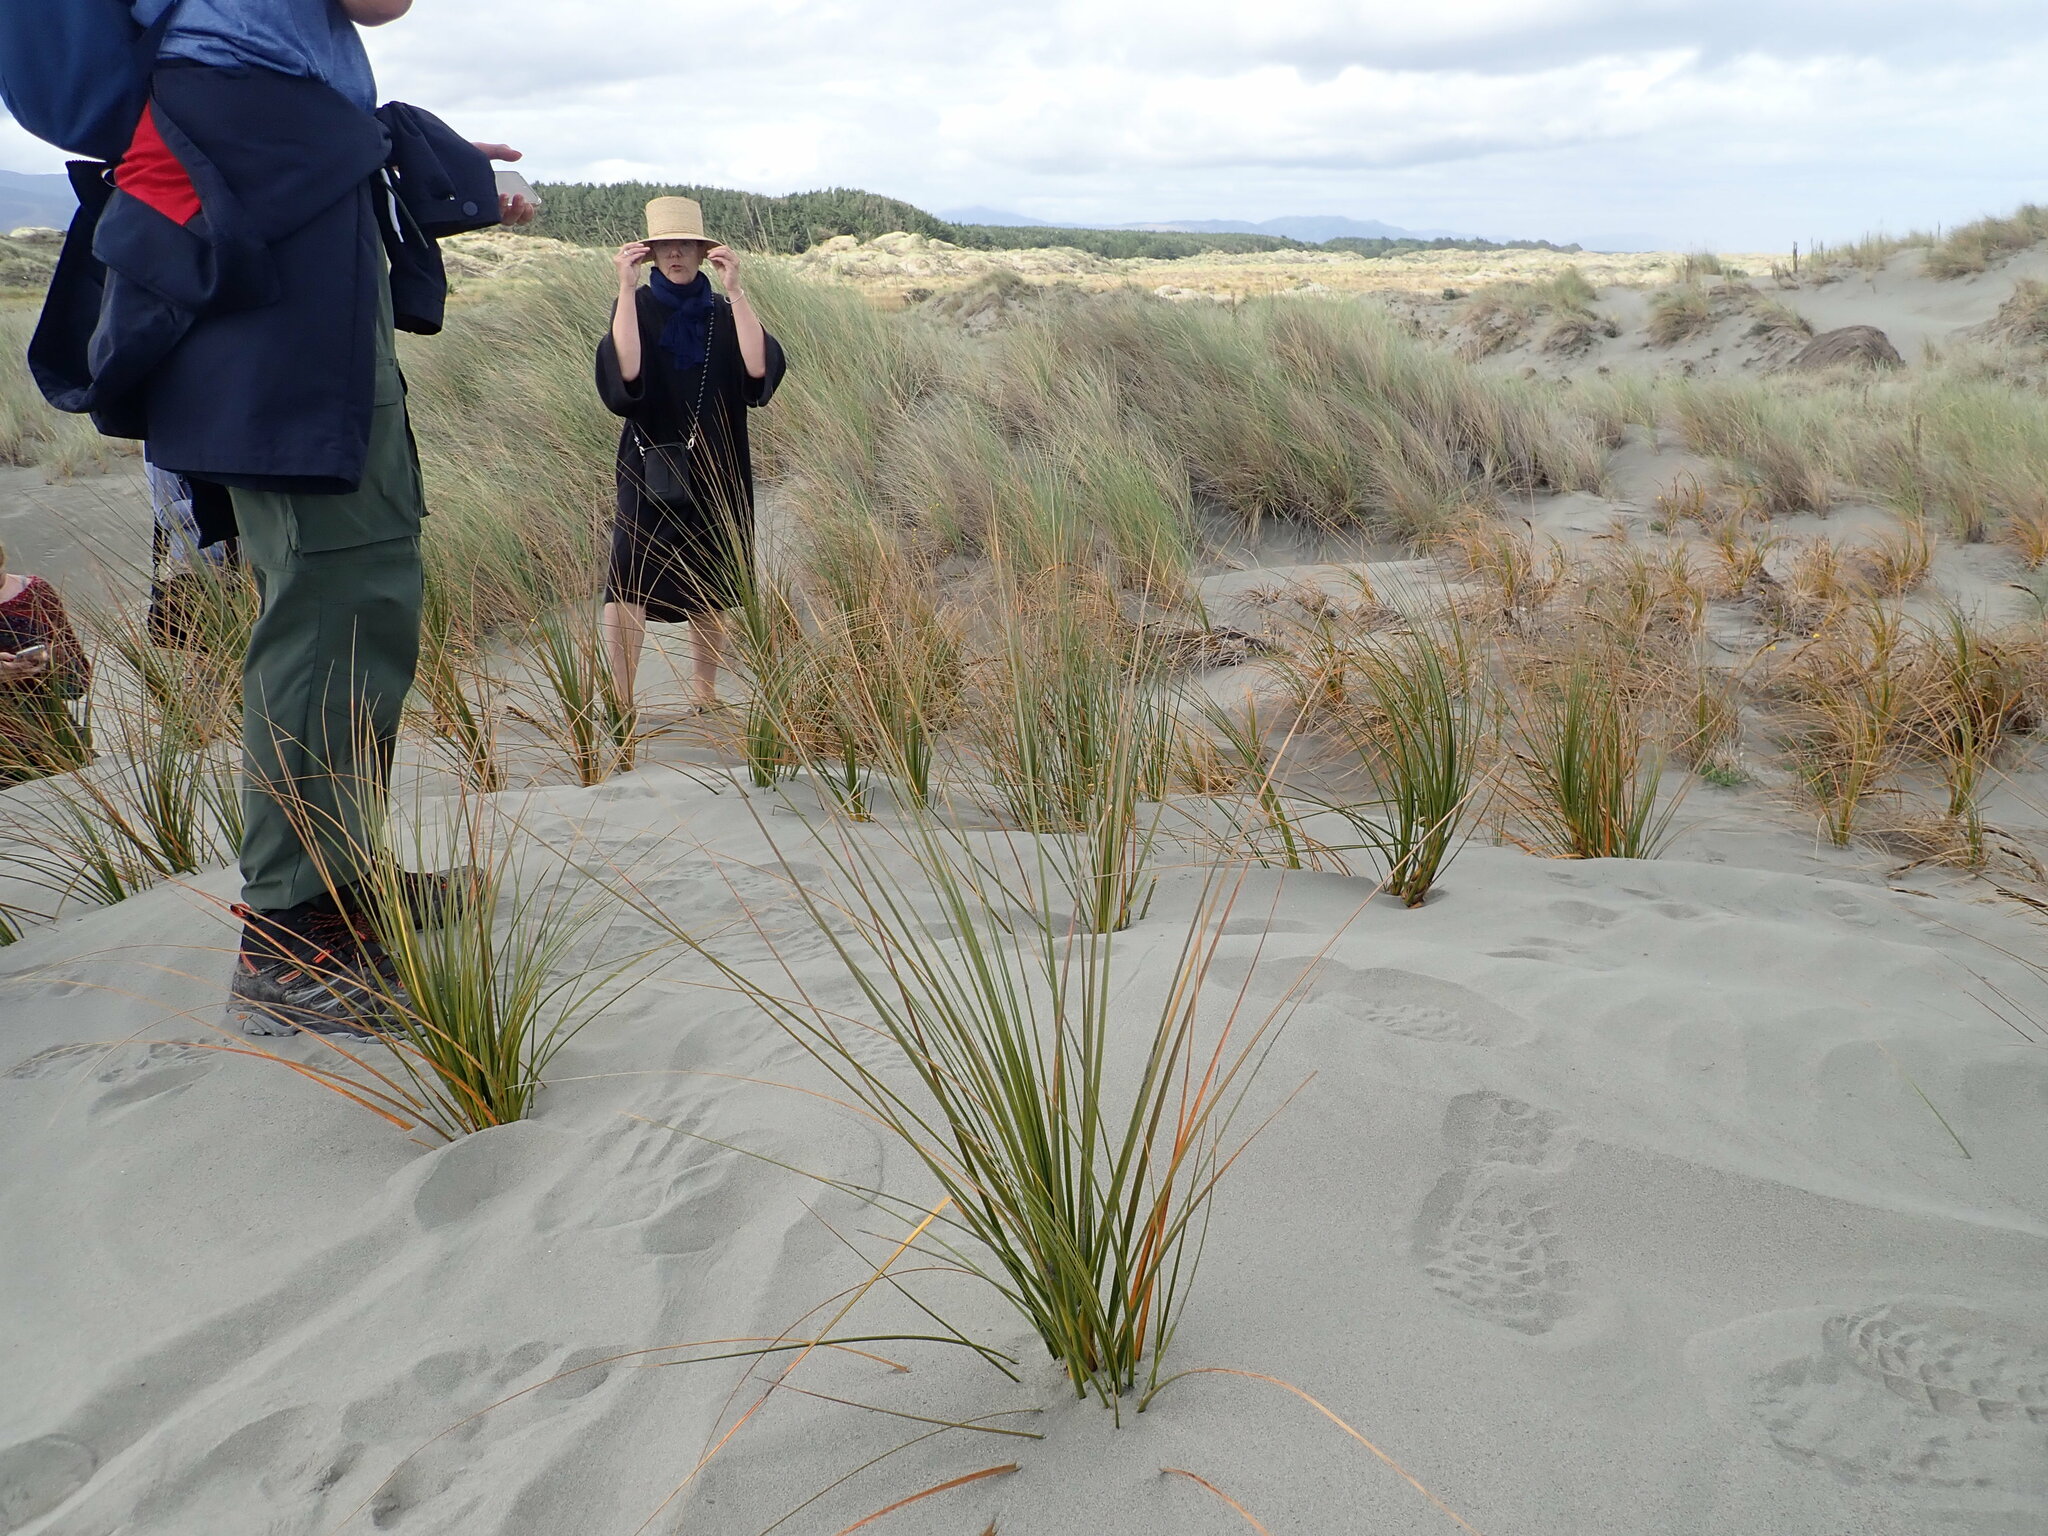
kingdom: Plantae
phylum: Tracheophyta
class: Liliopsida
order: Poales
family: Cyperaceae
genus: Ficinia
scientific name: Ficinia spiralis
